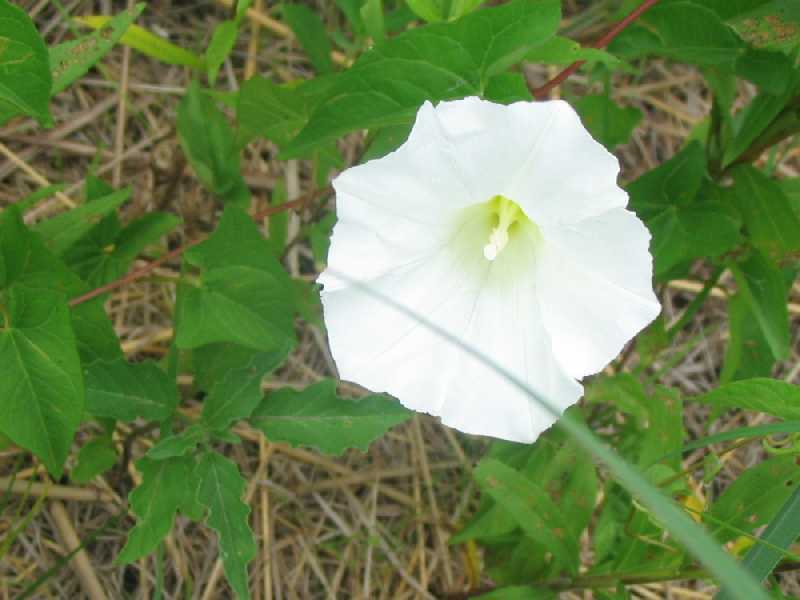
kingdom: Plantae
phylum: Tracheophyta
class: Magnoliopsida
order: Solanales
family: Convolvulaceae
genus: Calystegia
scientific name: Calystegia sepium
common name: Hedge bindweed
